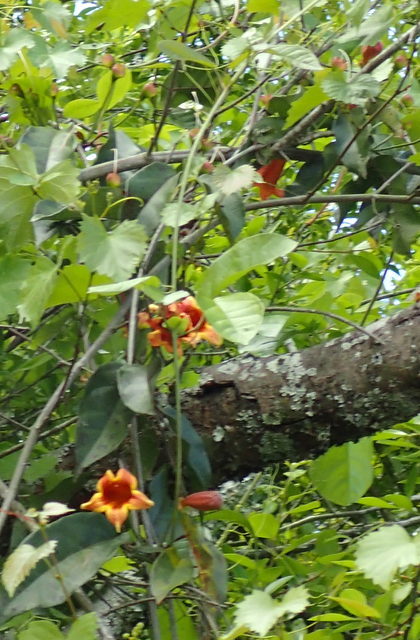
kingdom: Plantae
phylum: Tracheophyta
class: Magnoliopsida
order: Lamiales
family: Bignoniaceae
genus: Bignonia
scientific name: Bignonia capreolata
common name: Crossvine
